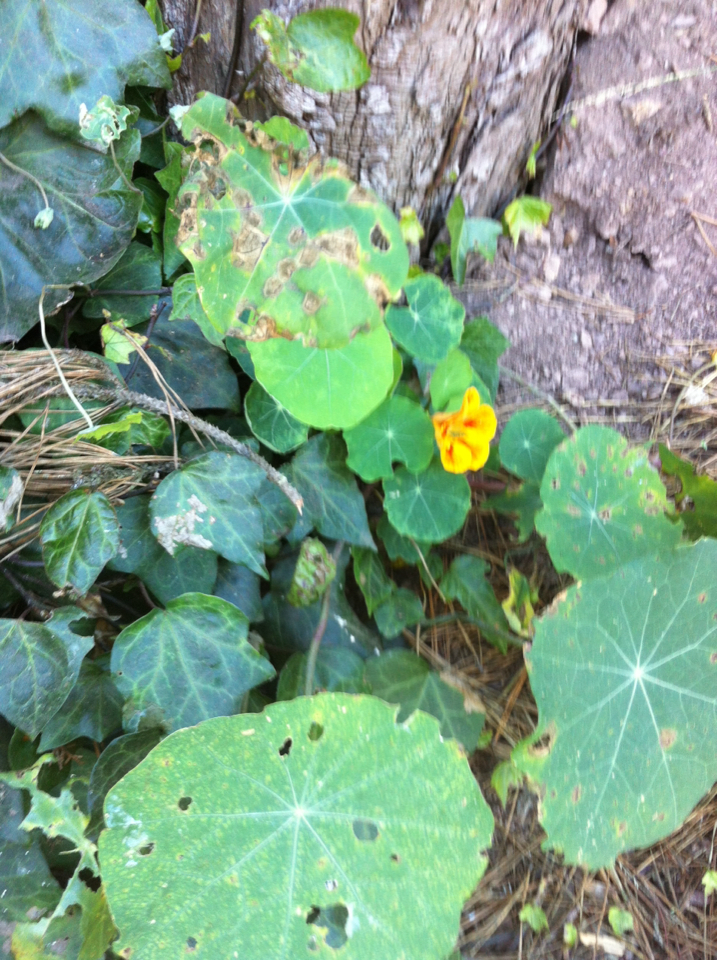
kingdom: Plantae
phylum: Tracheophyta
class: Magnoliopsida
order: Brassicales
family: Tropaeolaceae
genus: Tropaeolum
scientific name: Tropaeolum majus
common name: Nasturtium
